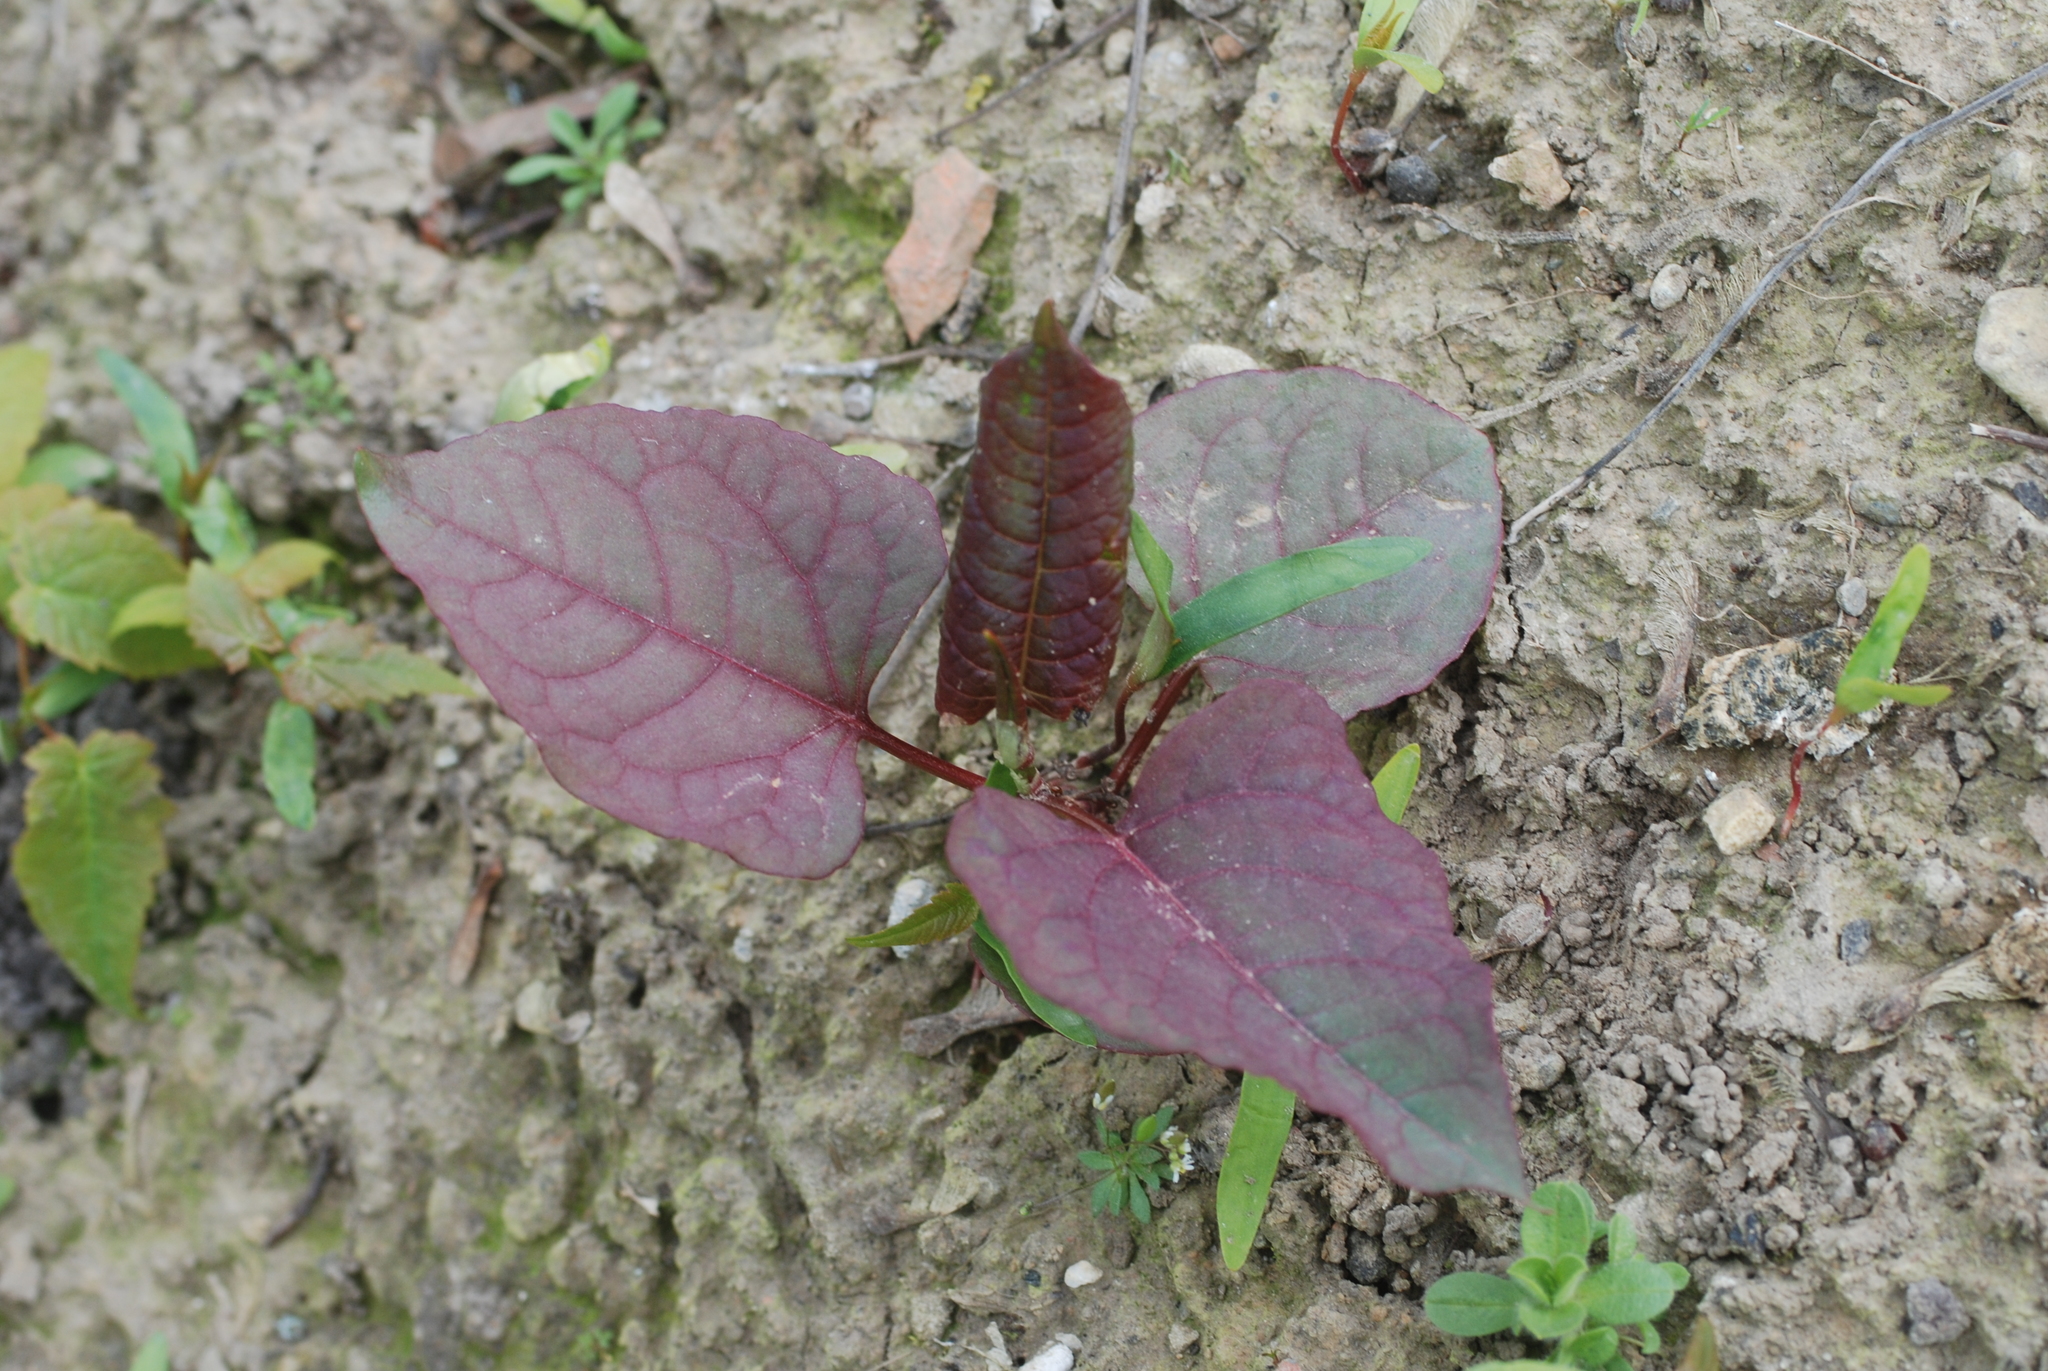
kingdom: Plantae
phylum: Tracheophyta
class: Magnoliopsida
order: Caryophyllales
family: Polygonaceae
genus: Reynoutria
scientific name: Reynoutria japonica
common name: Japanese knotweed
